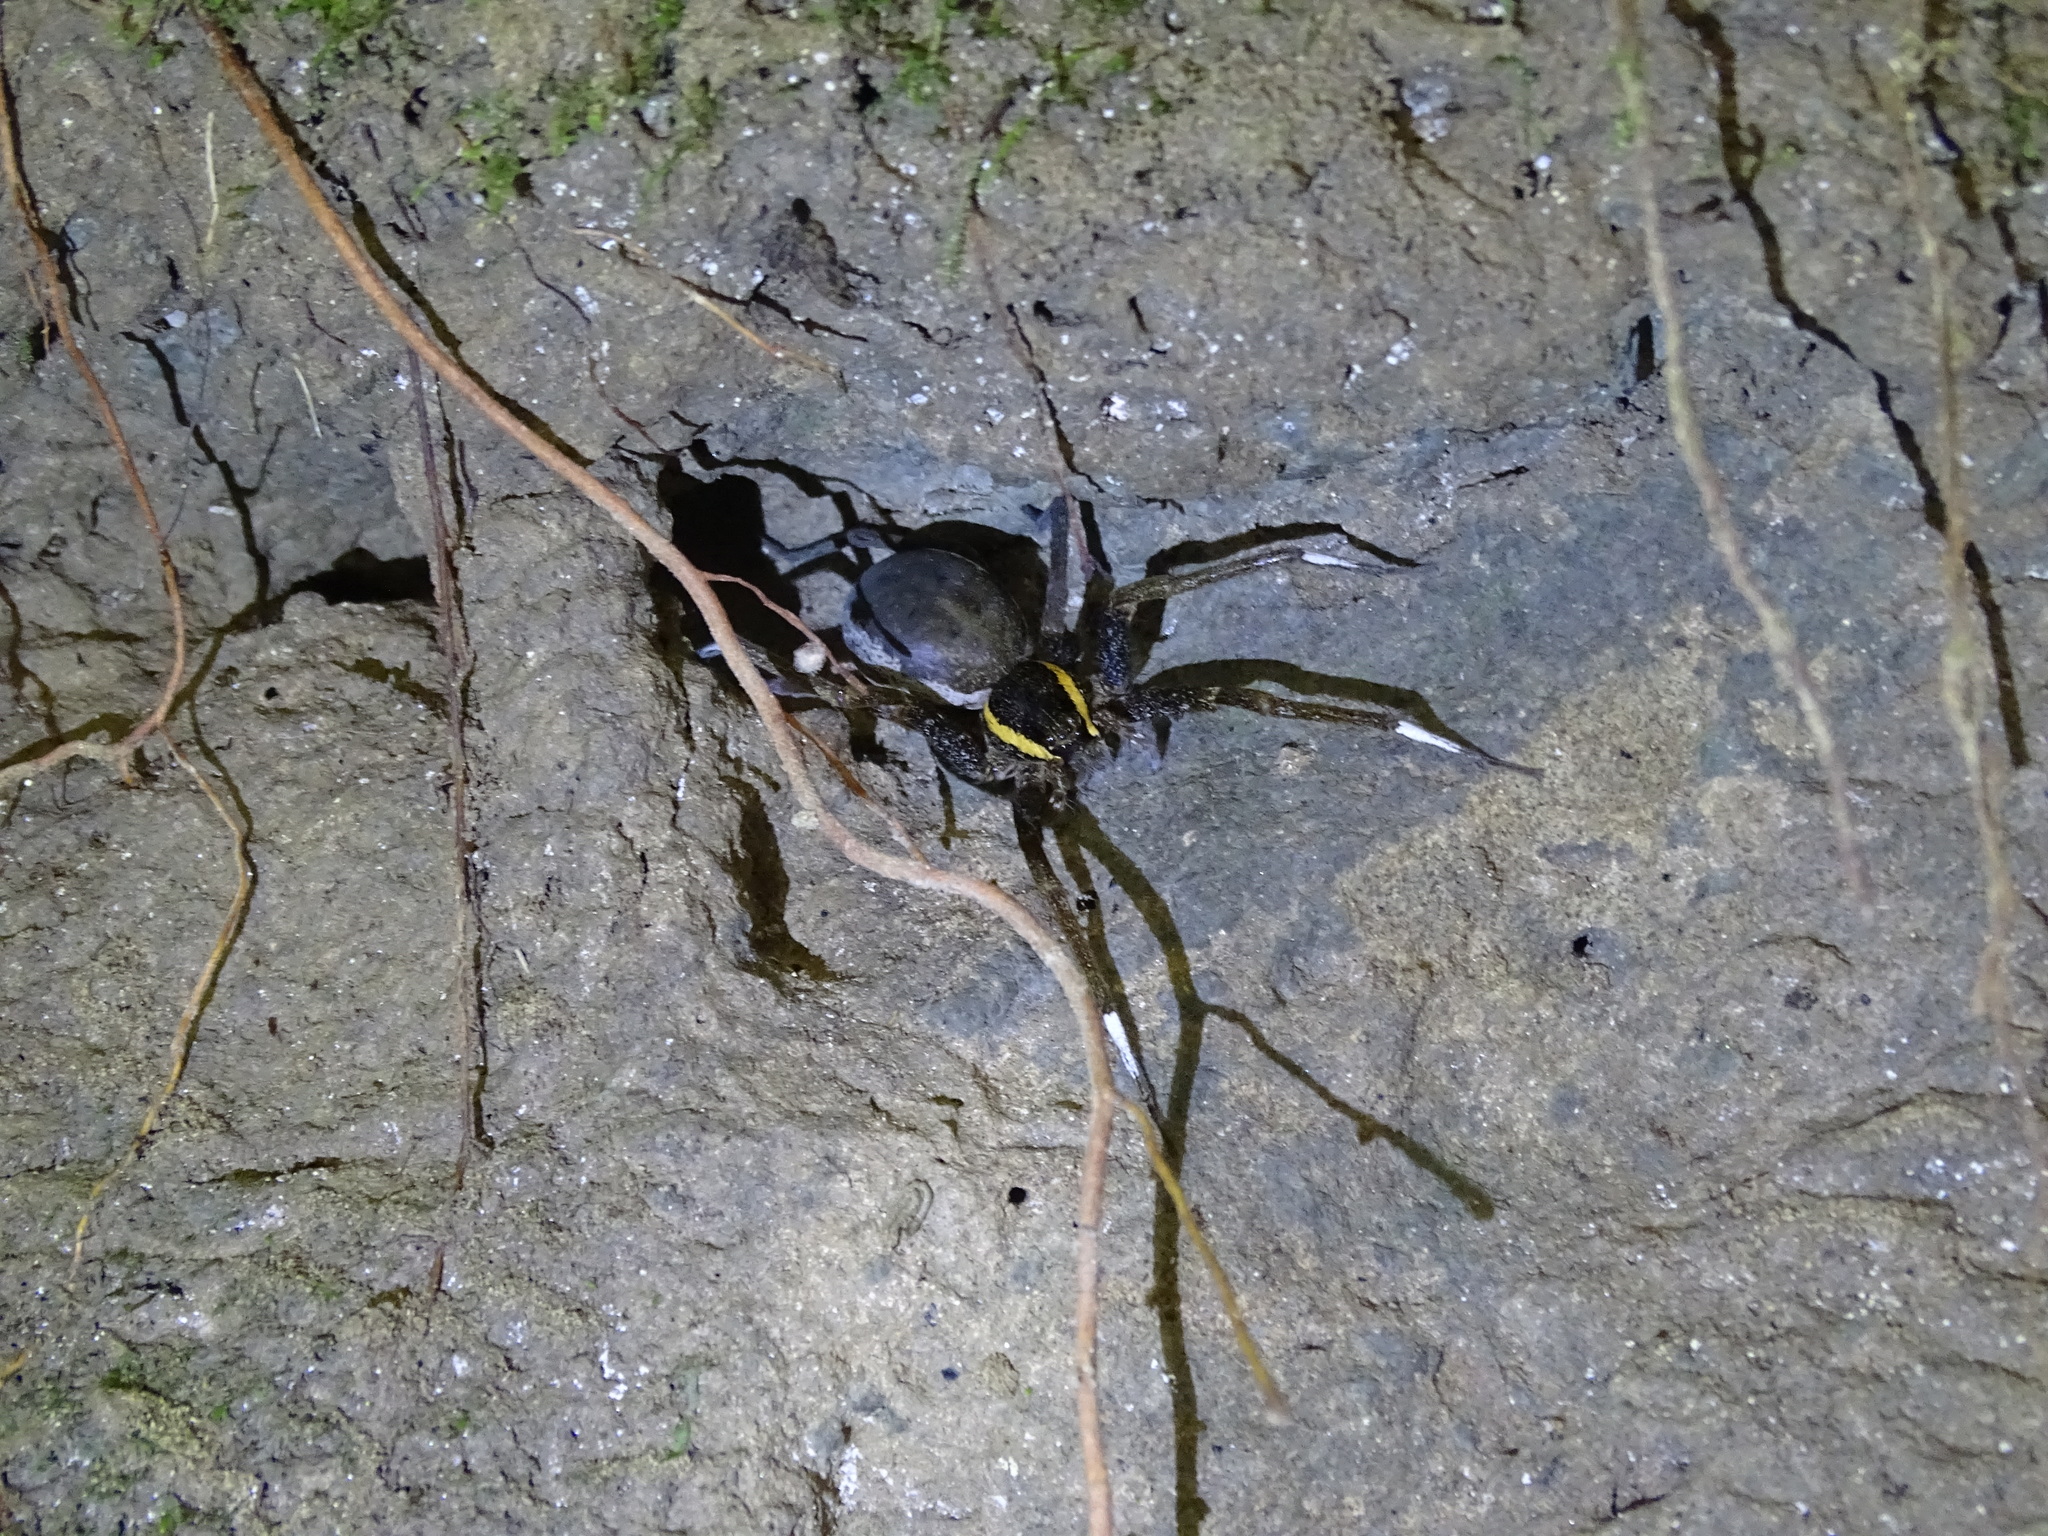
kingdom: Animalia
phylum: Arthropoda
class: Arachnida
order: Araneae
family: Pisauridae
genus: Dolomedes
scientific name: Dolomedes raptor
